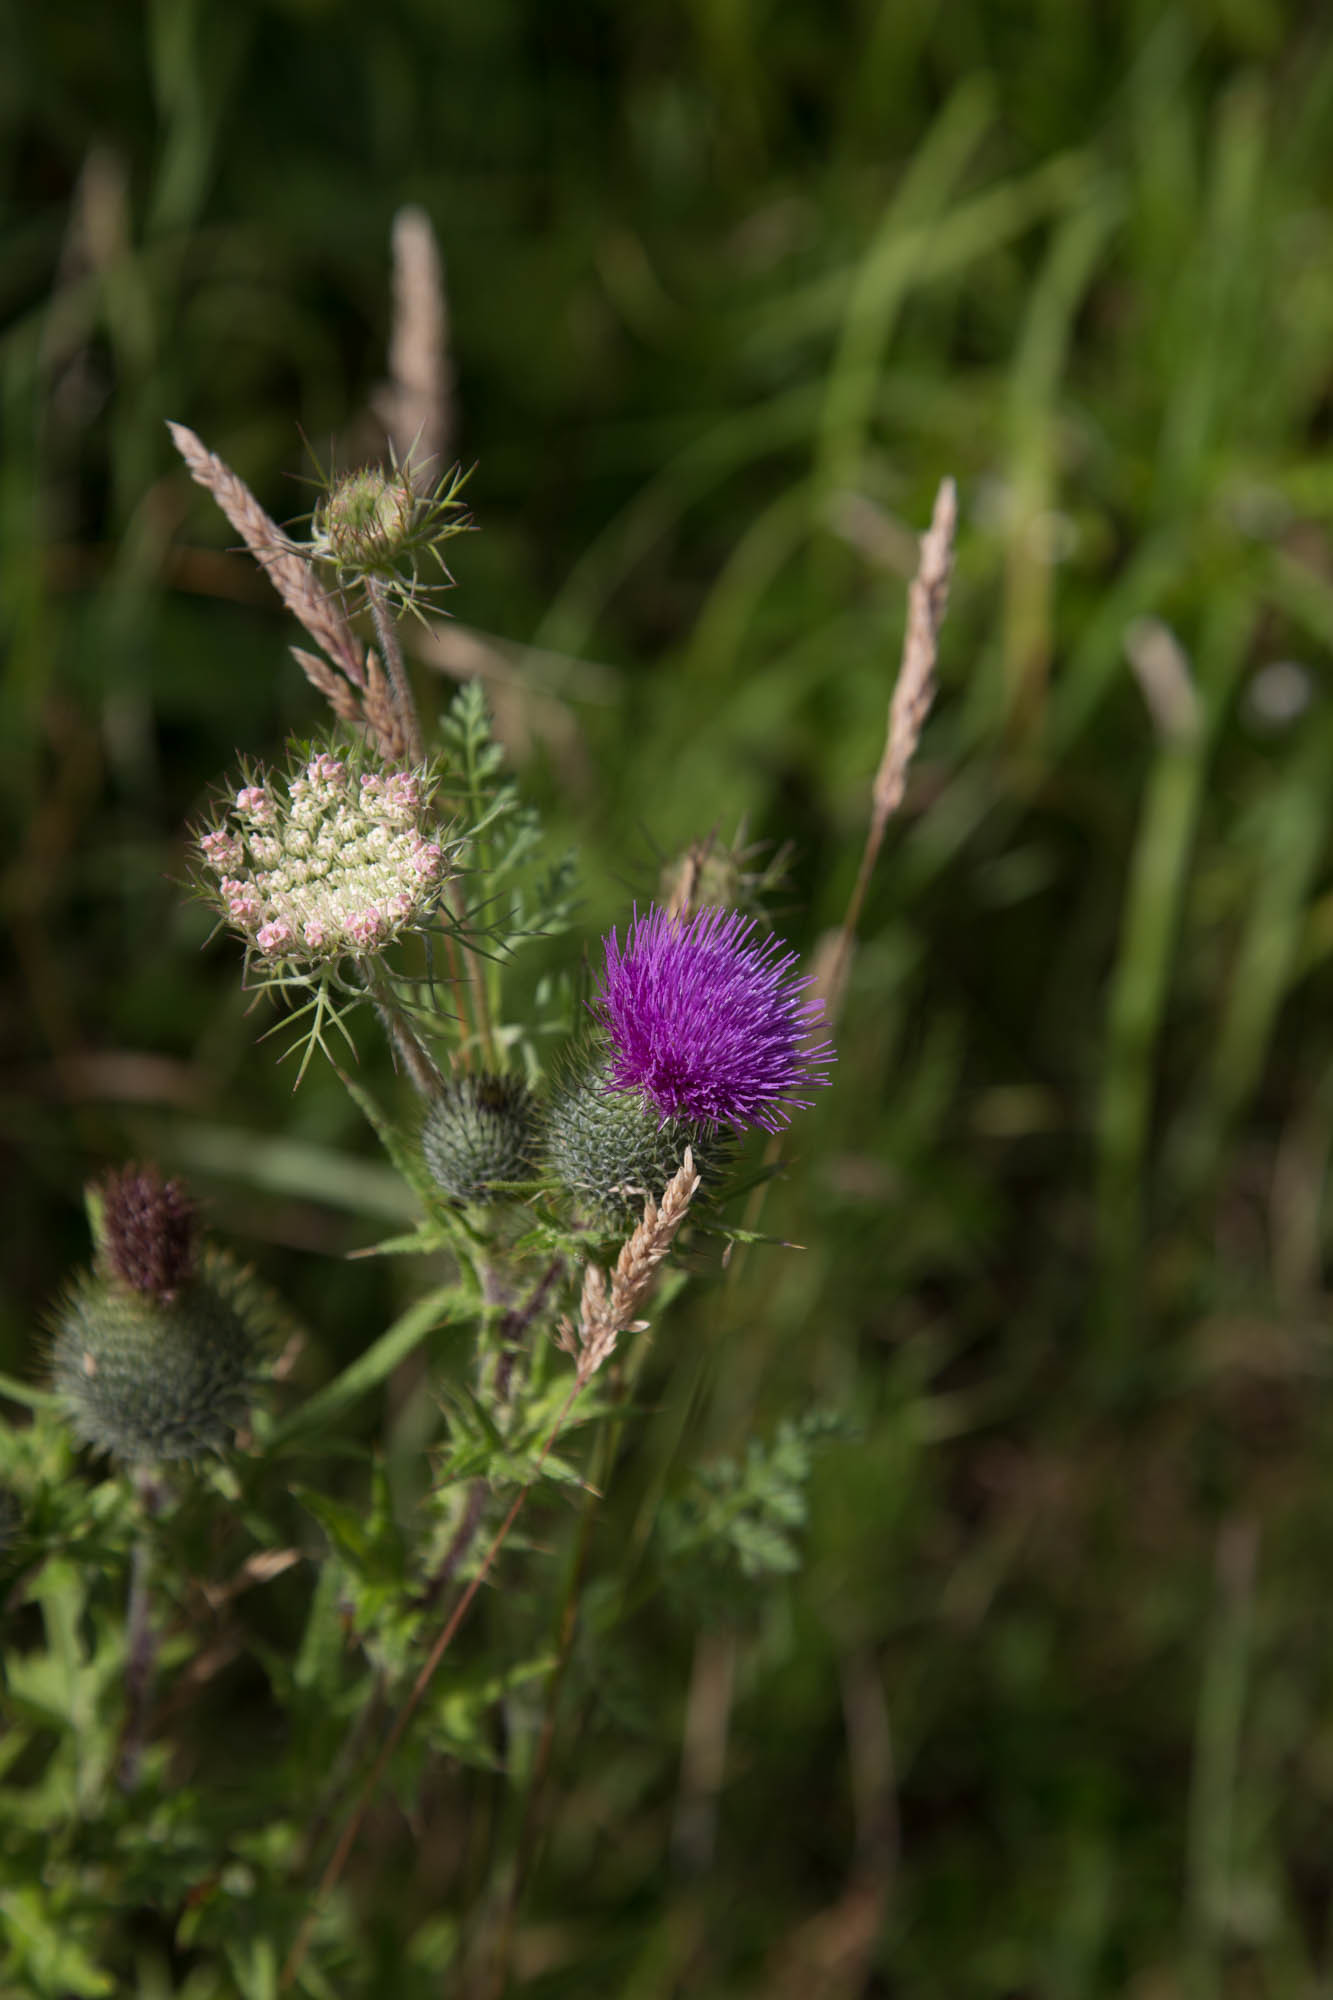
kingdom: Plantae
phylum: Tracheophyta
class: Magnoliopsida
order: Asterales
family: Asteraceae
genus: Cirsium
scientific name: Cirsium vulgare
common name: Bull thistle
